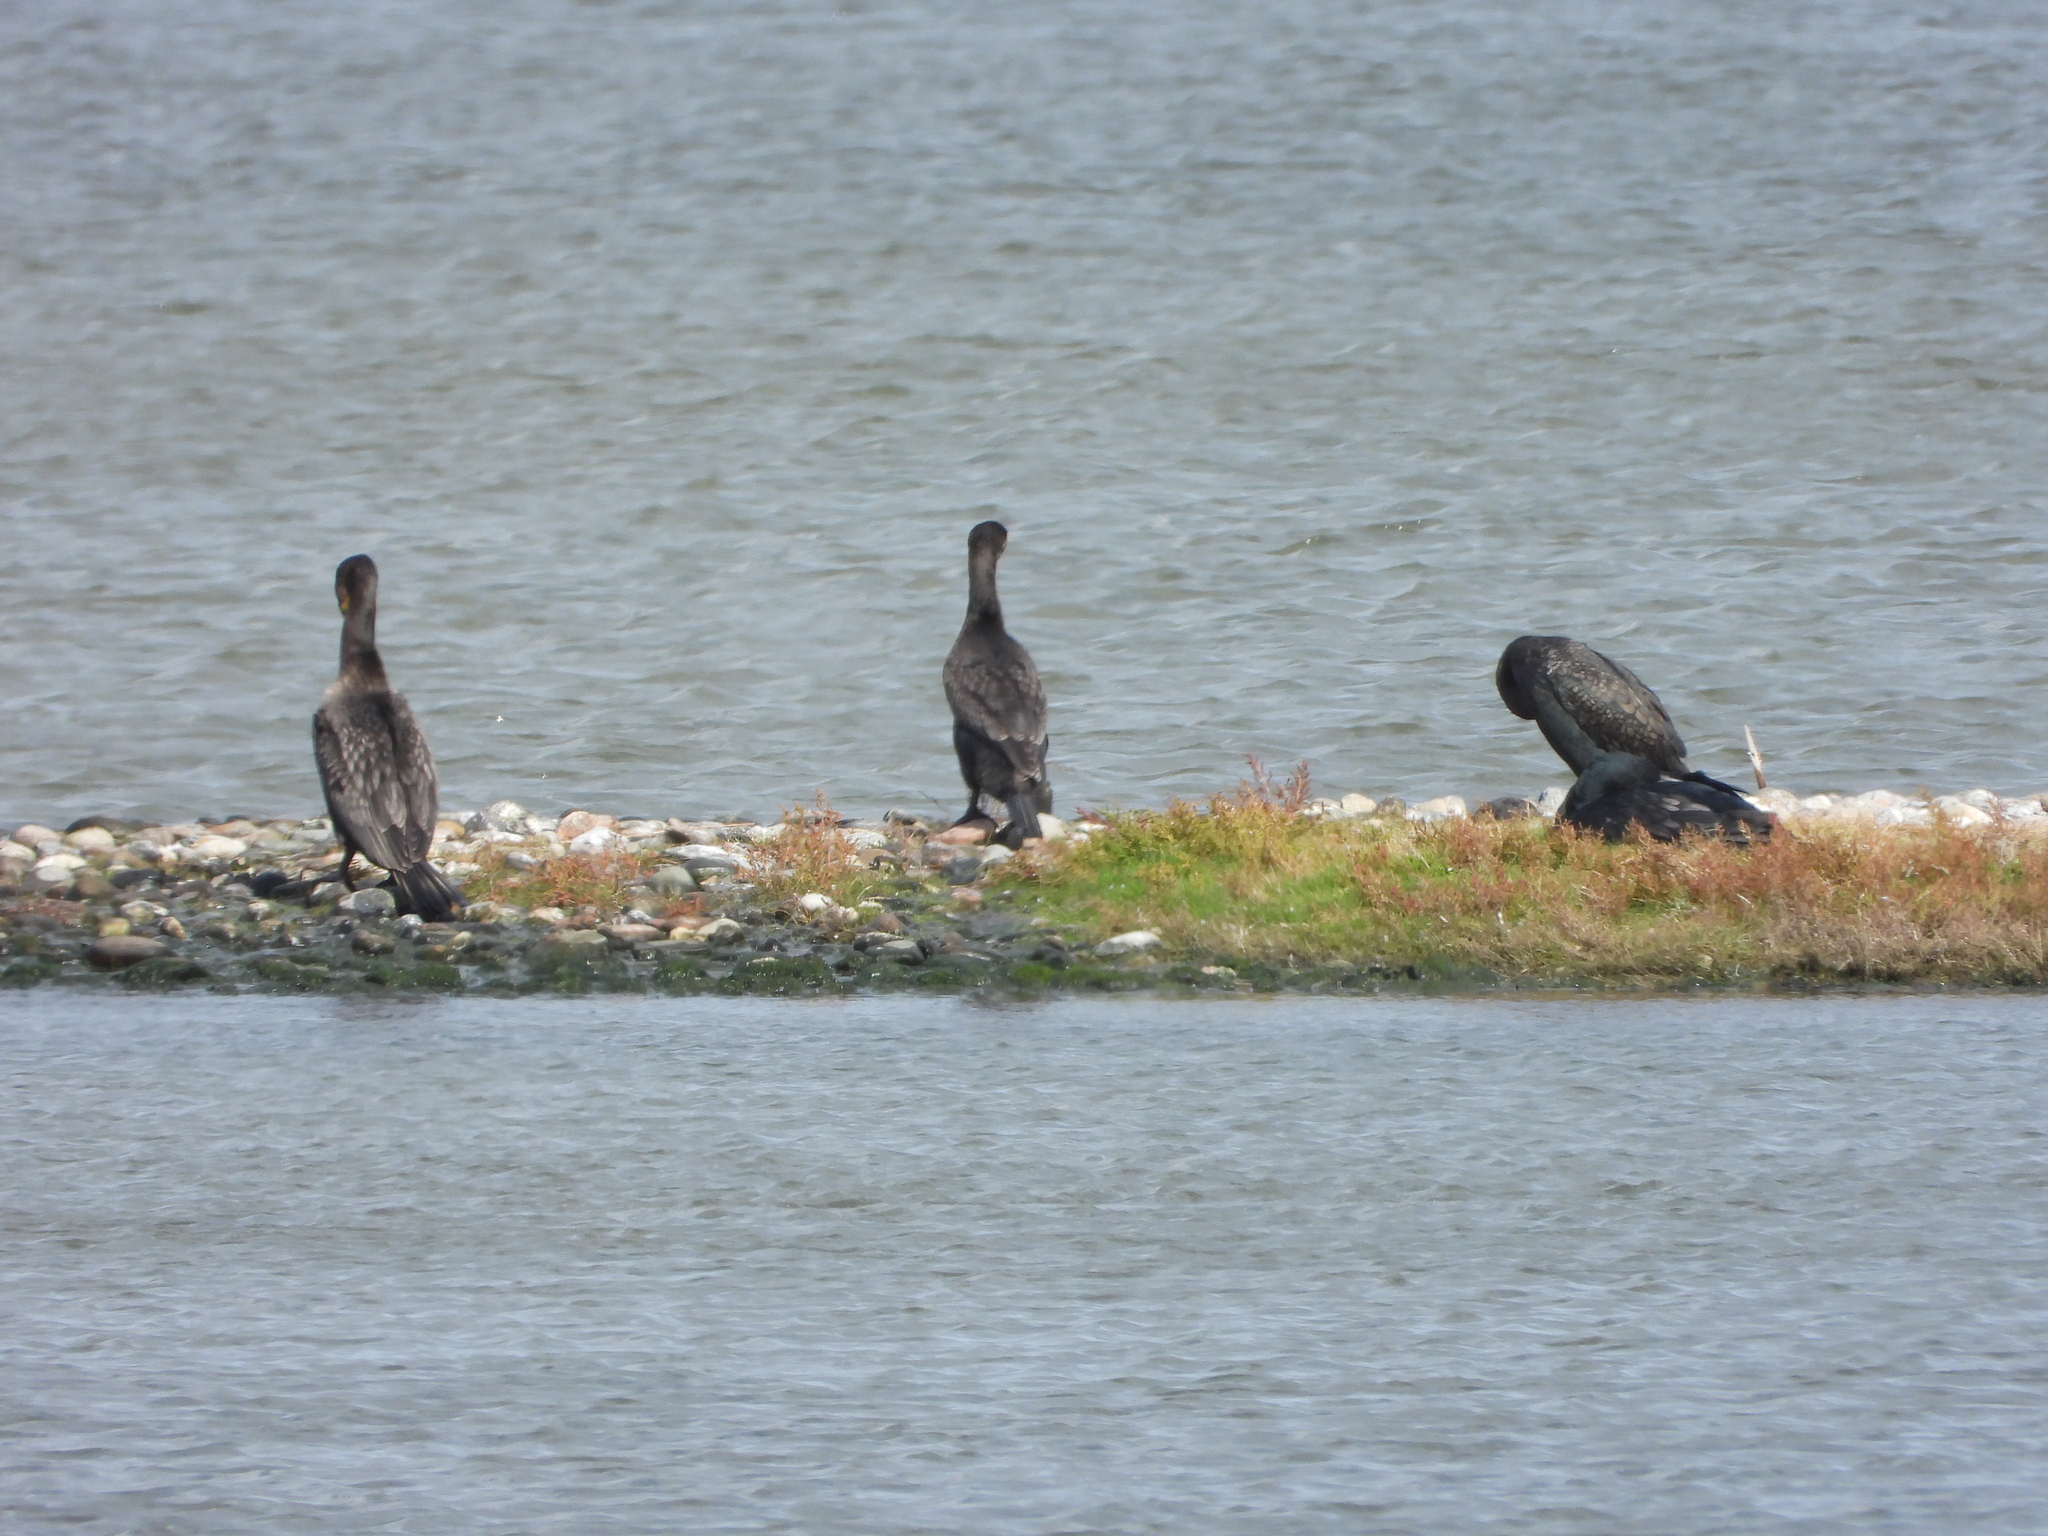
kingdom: Animalia
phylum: Chordata
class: Aves
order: Suliformes
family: Phalacrocoracidae
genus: Phalacrocorax
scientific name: Phalacrocorax carbo
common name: Great cormorant
